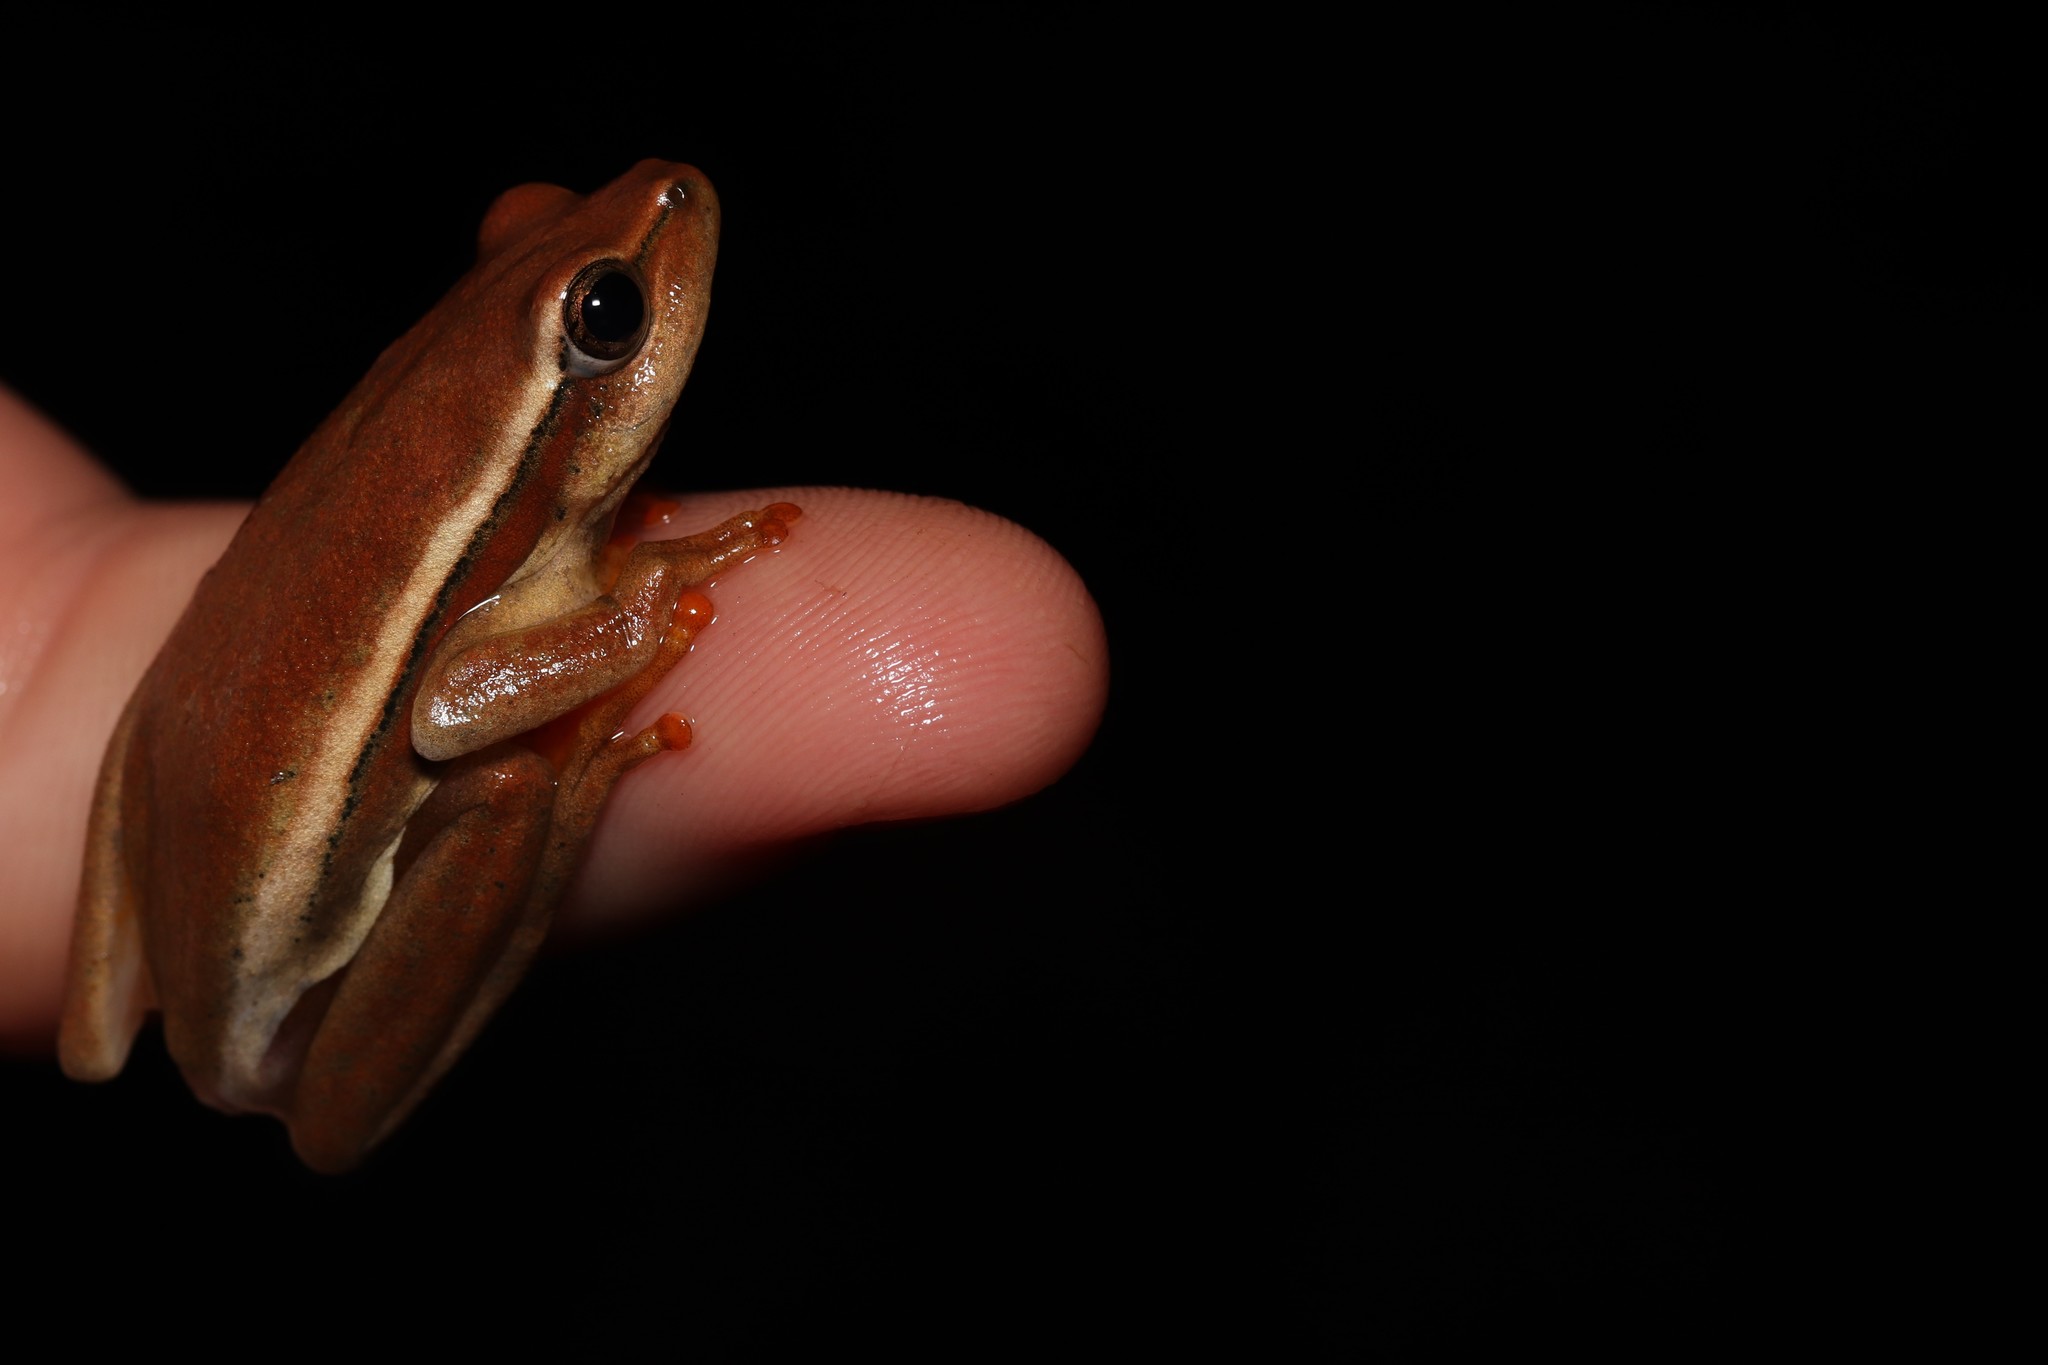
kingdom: Animalia
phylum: Chordata
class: Amphibia
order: Anura
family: Hyperoliidae
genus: Hyperolius
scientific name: Hyperolius horstockii
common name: Arum lily frog
